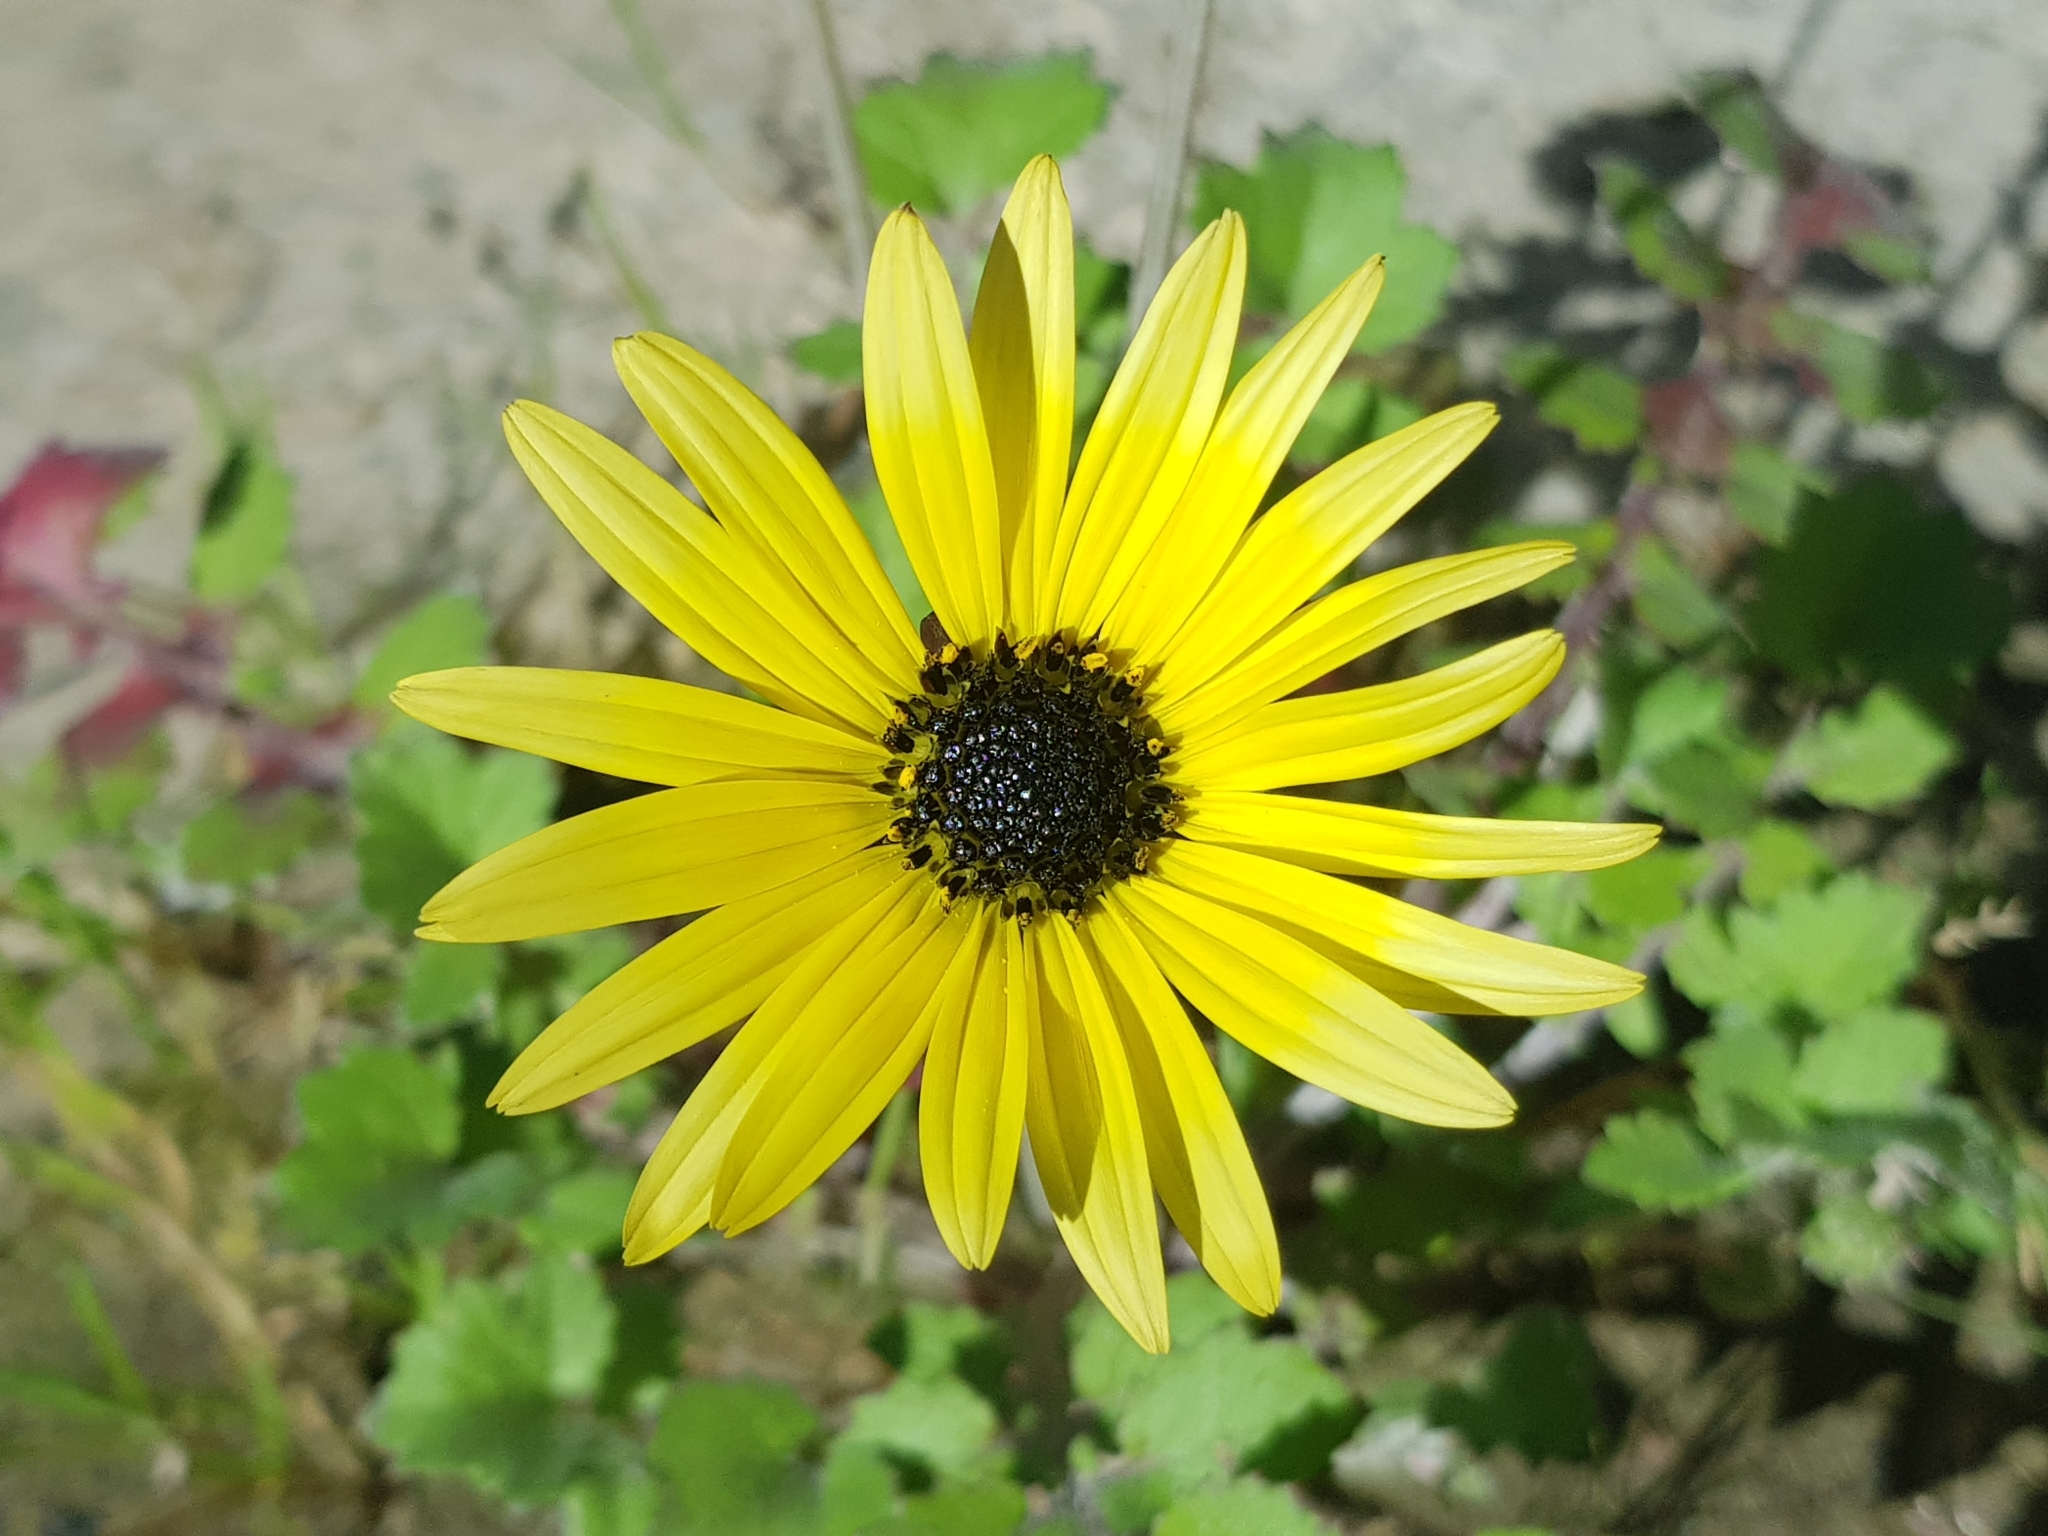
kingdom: Plantae
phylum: Tracheophyta
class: Magnoliopsida
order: Asterales
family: Asteraceae
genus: Arctotheca
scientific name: Arctotheca calendula
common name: Capeweed
